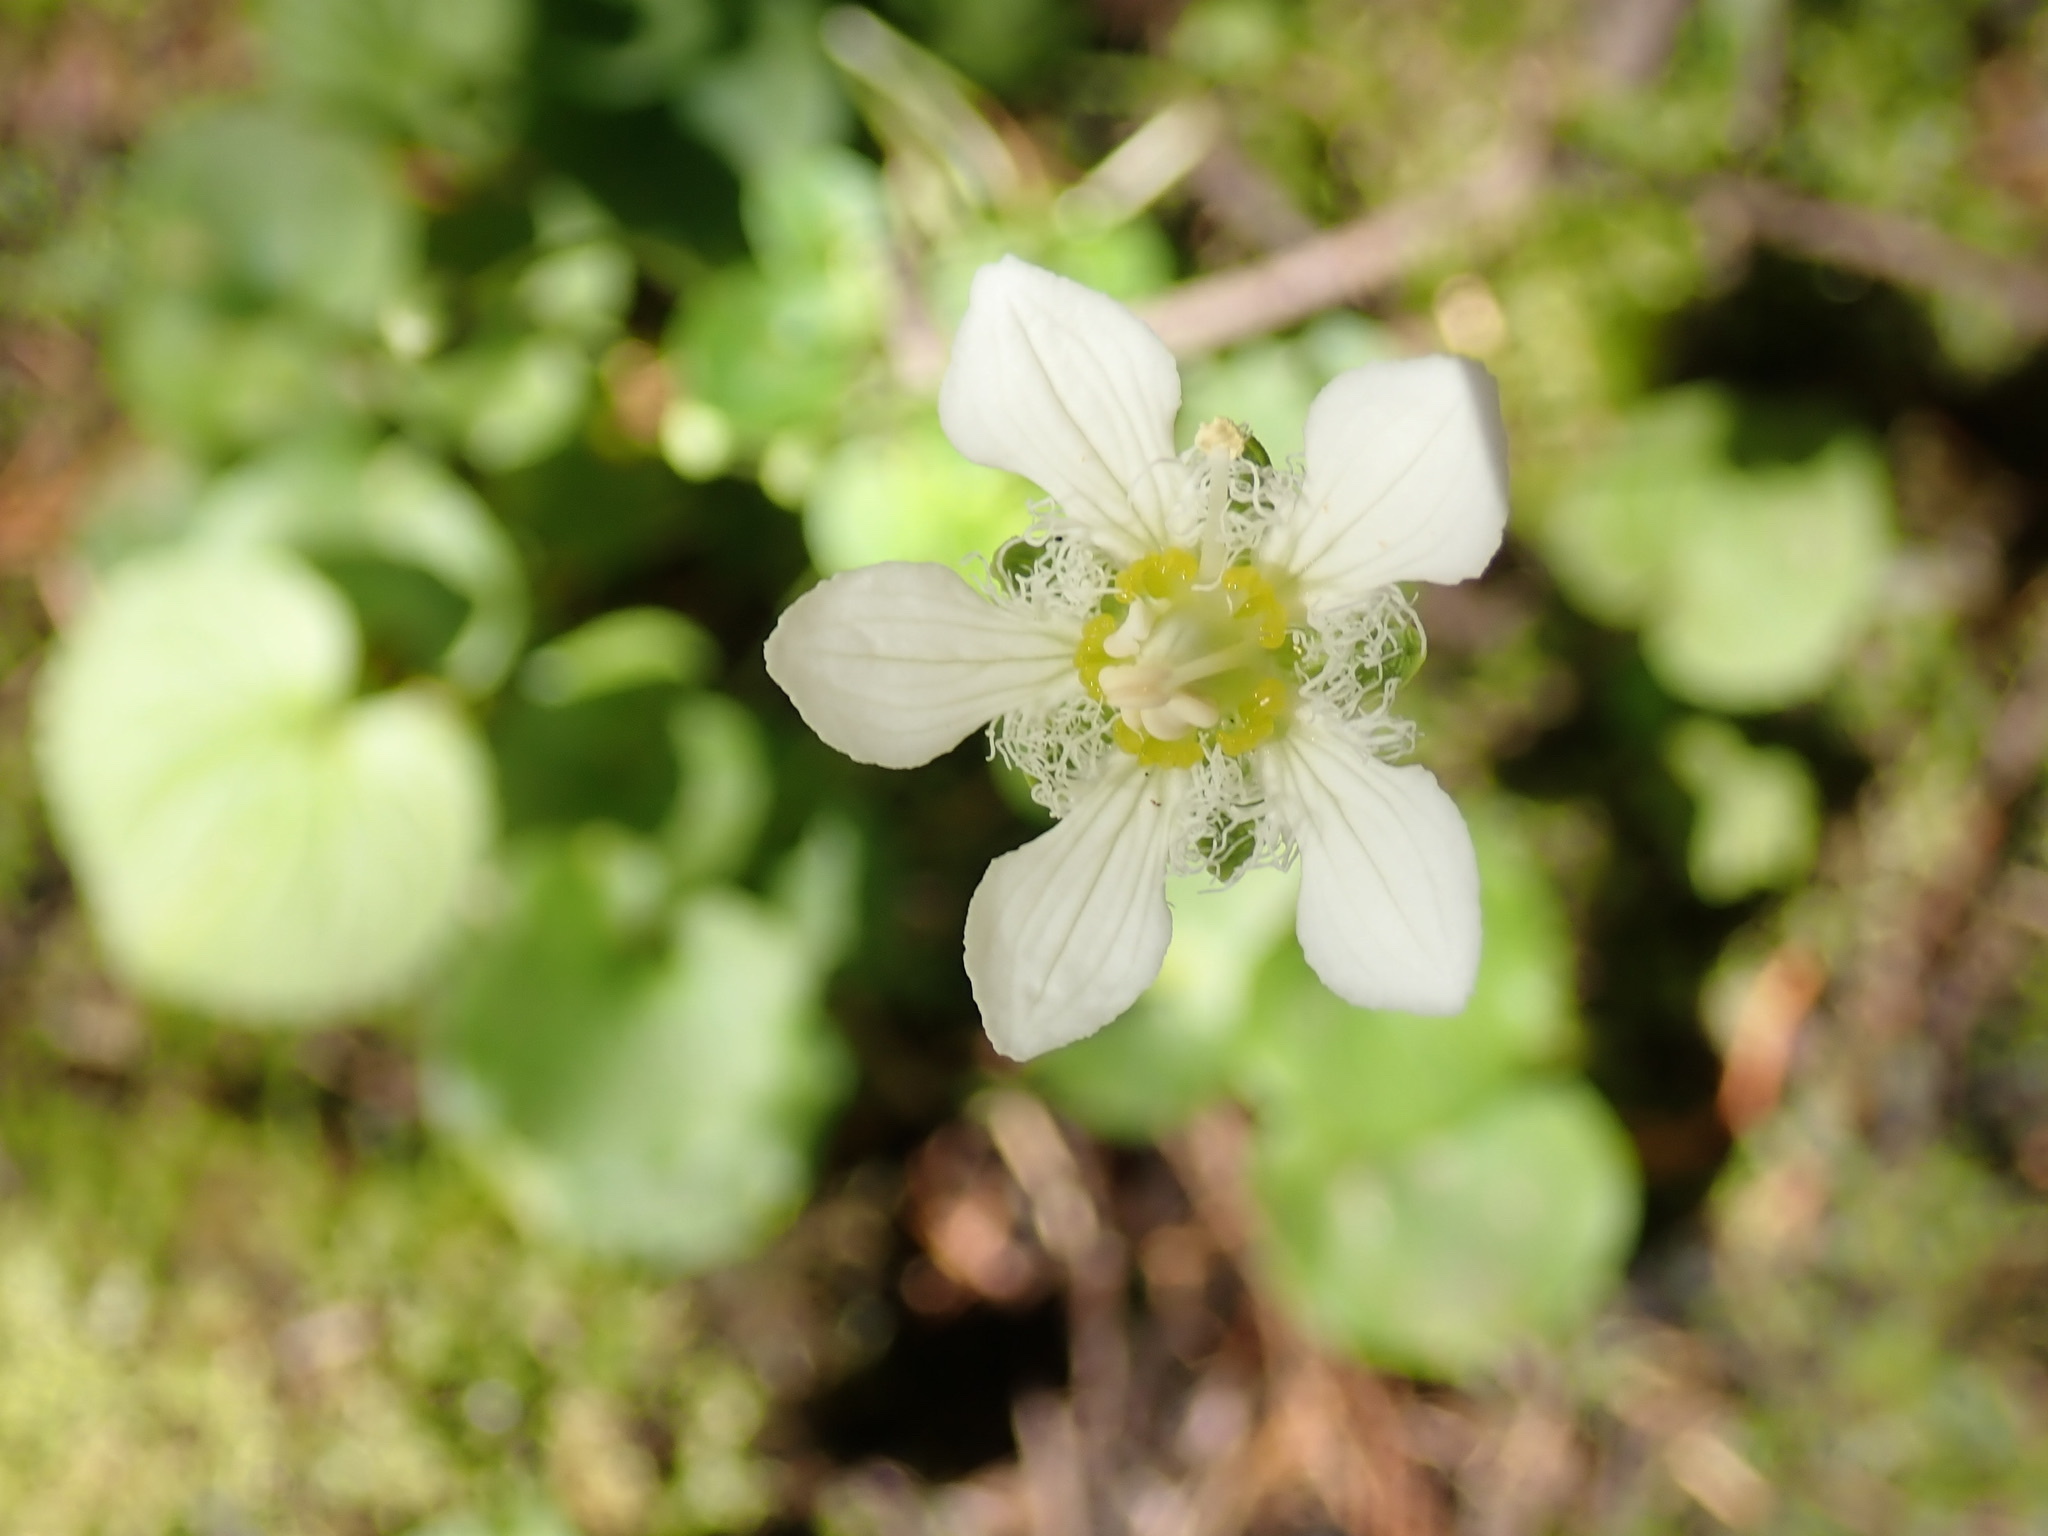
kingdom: Plantae
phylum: Tracheophyta
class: Magnoliopsida
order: Celastrales
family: Parnassiaceae
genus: Parnassia
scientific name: Parnassia fimbriata
